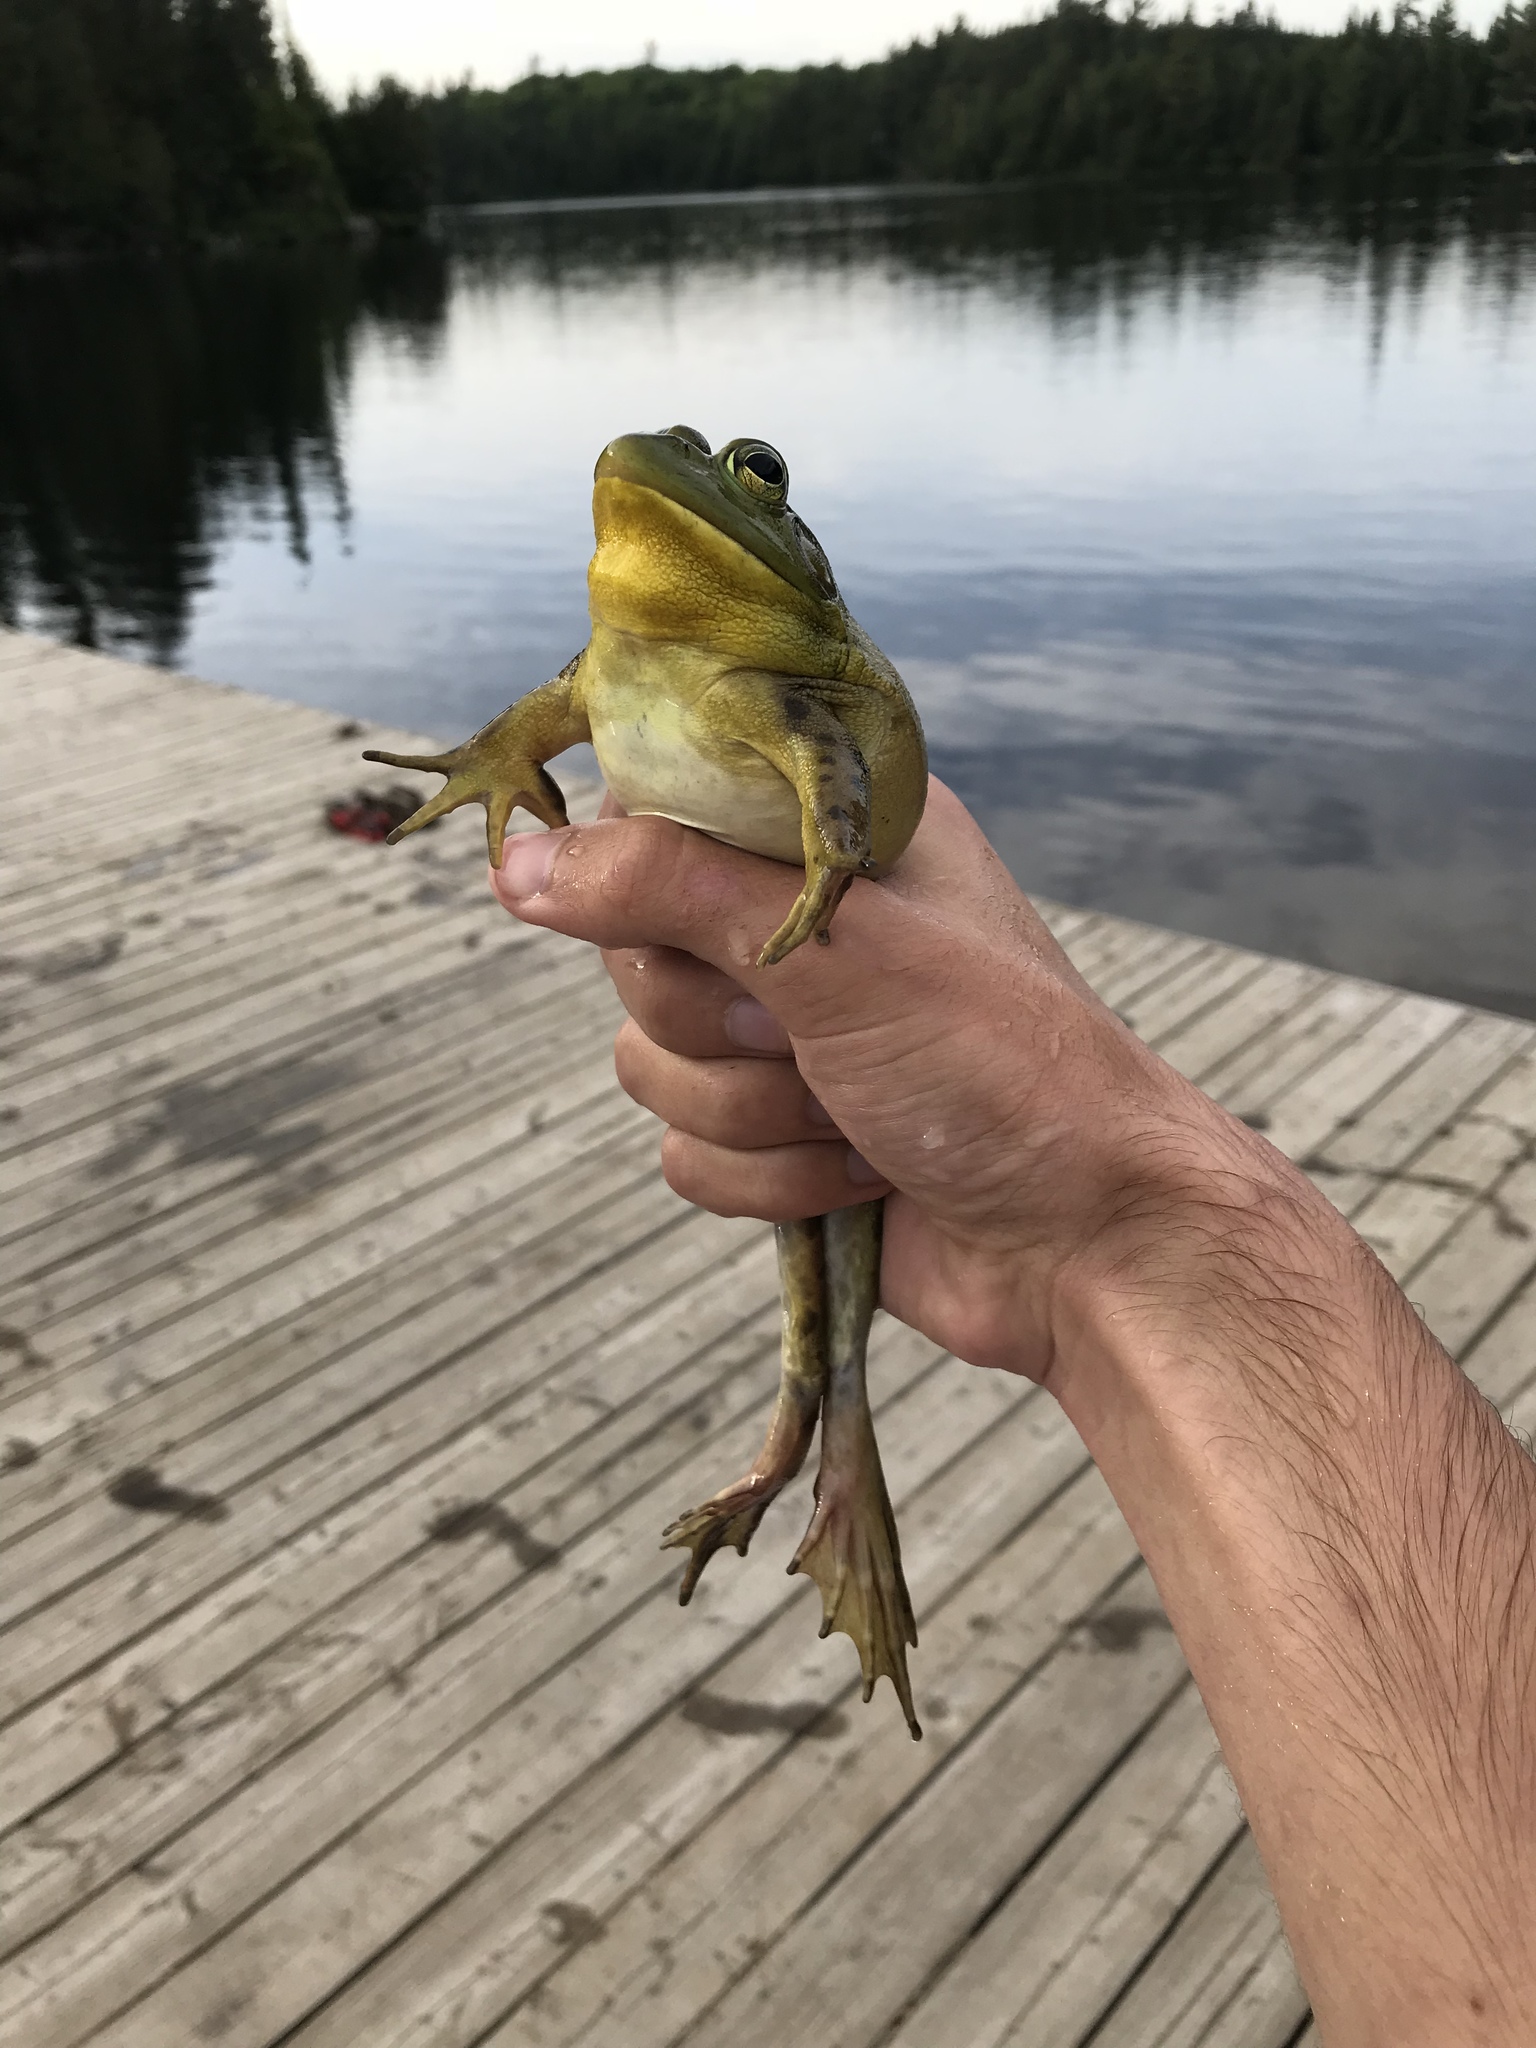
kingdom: Animalia
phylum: Chordata
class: Amphibia
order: Anura
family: Ranidae
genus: Lithobates
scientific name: Lithobates catesbeianus
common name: American bullfrog
